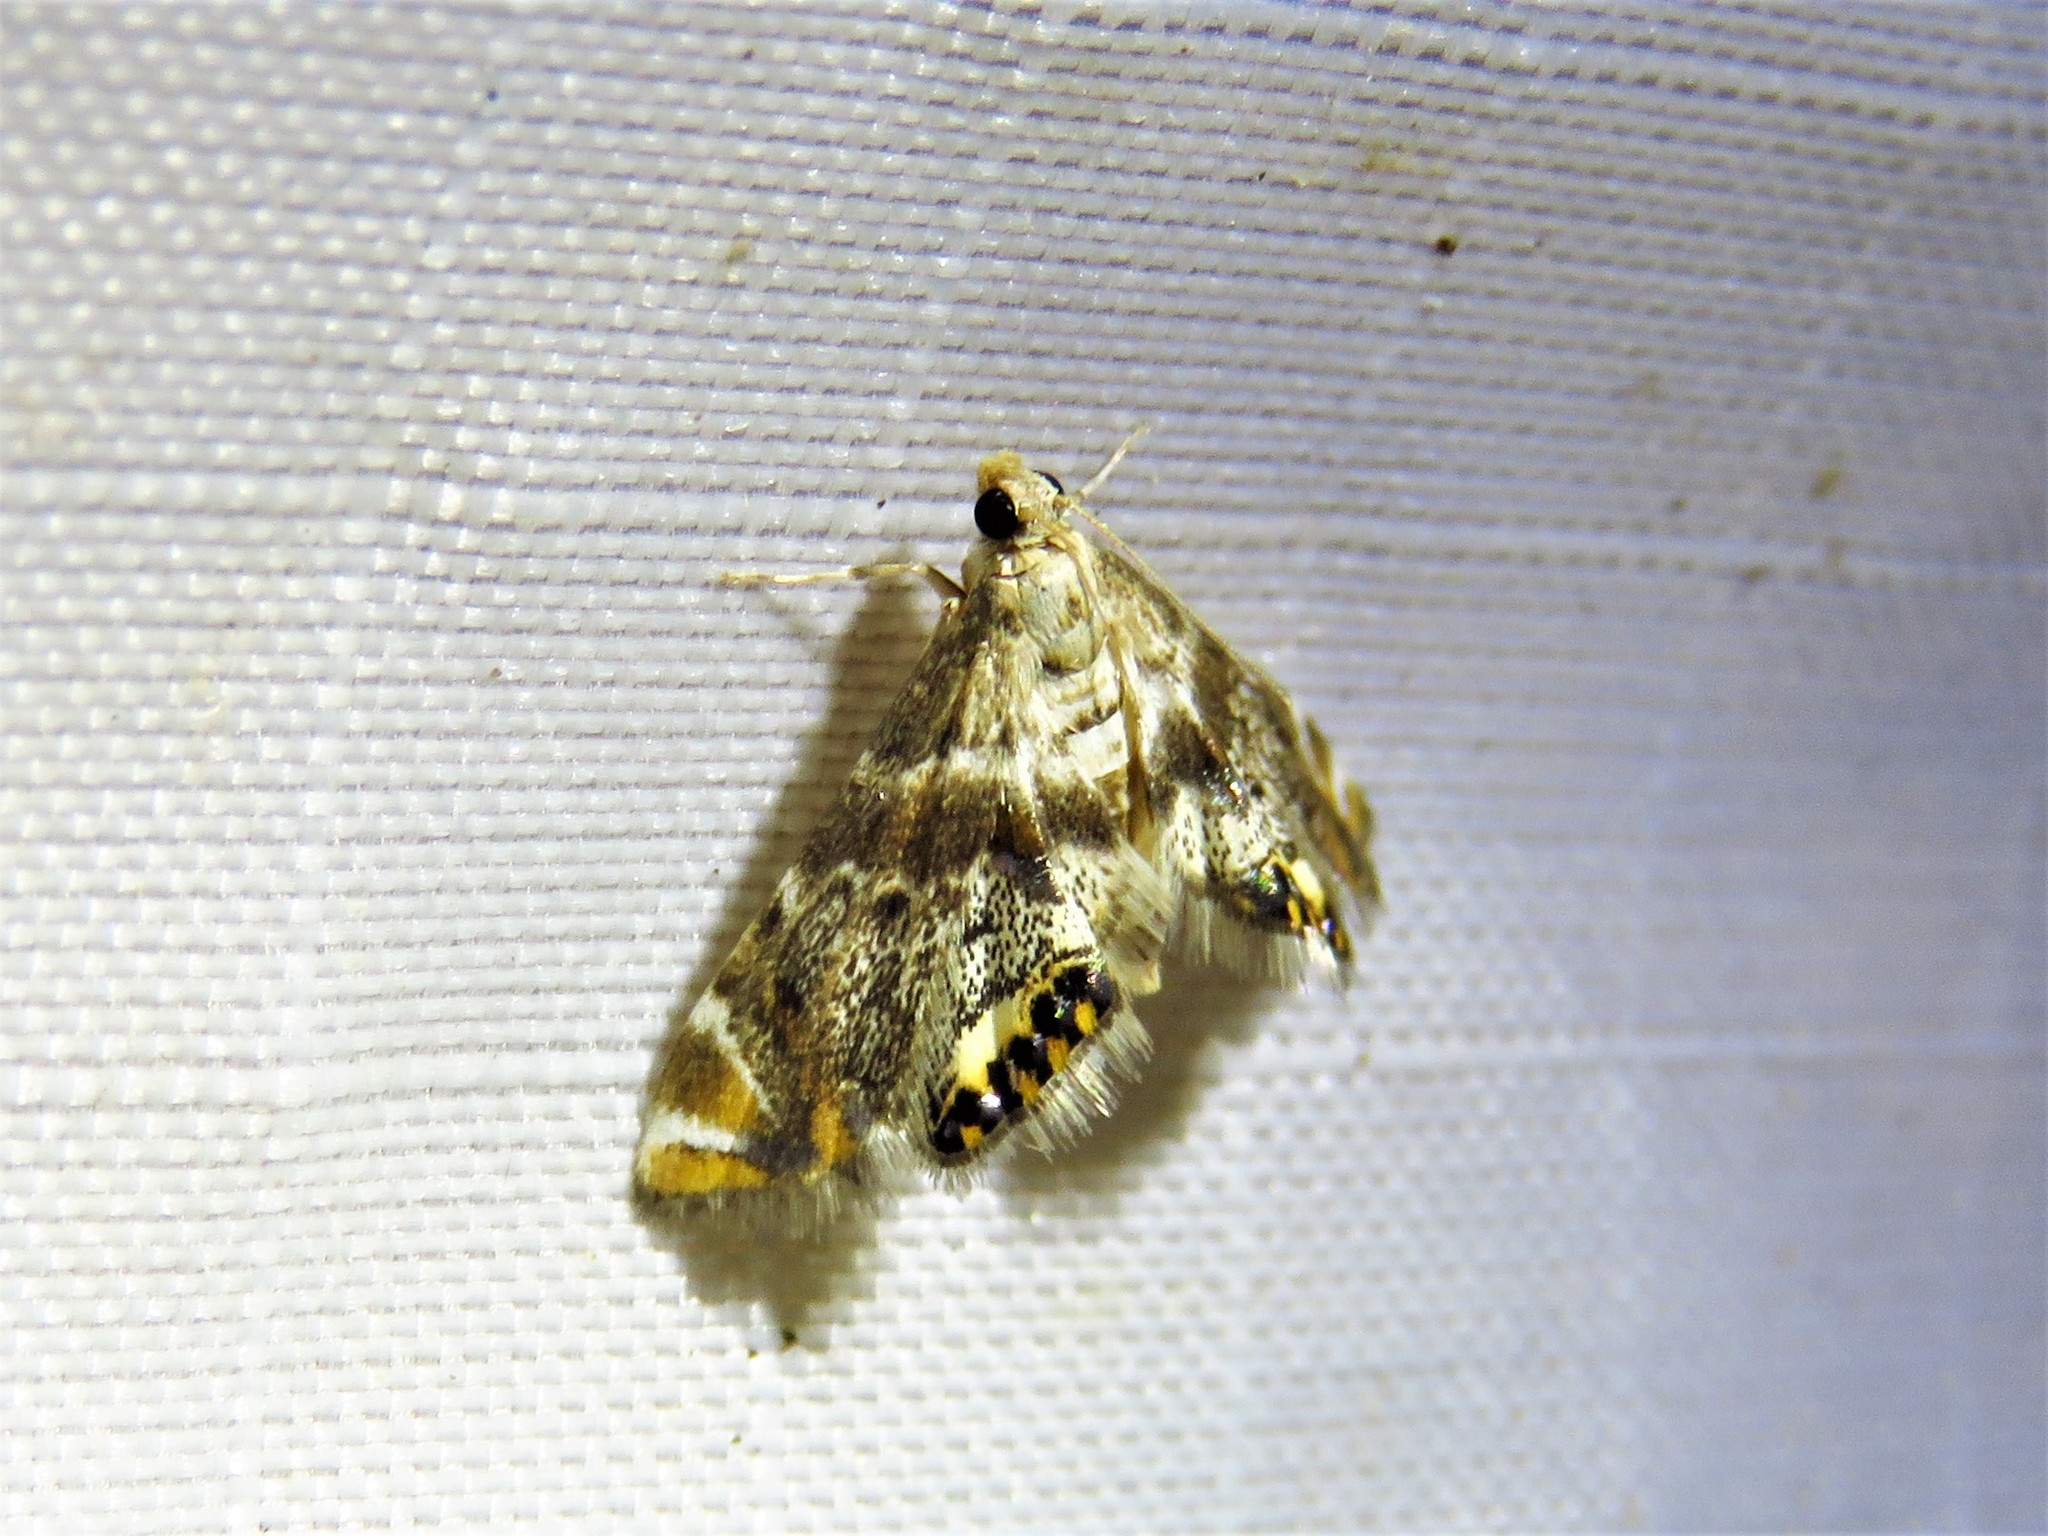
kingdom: Animalia
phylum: Arthropoda
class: Insecta
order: Lepidoptera
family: Crambidae
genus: Petrophila
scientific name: Petrophila fulicalis
